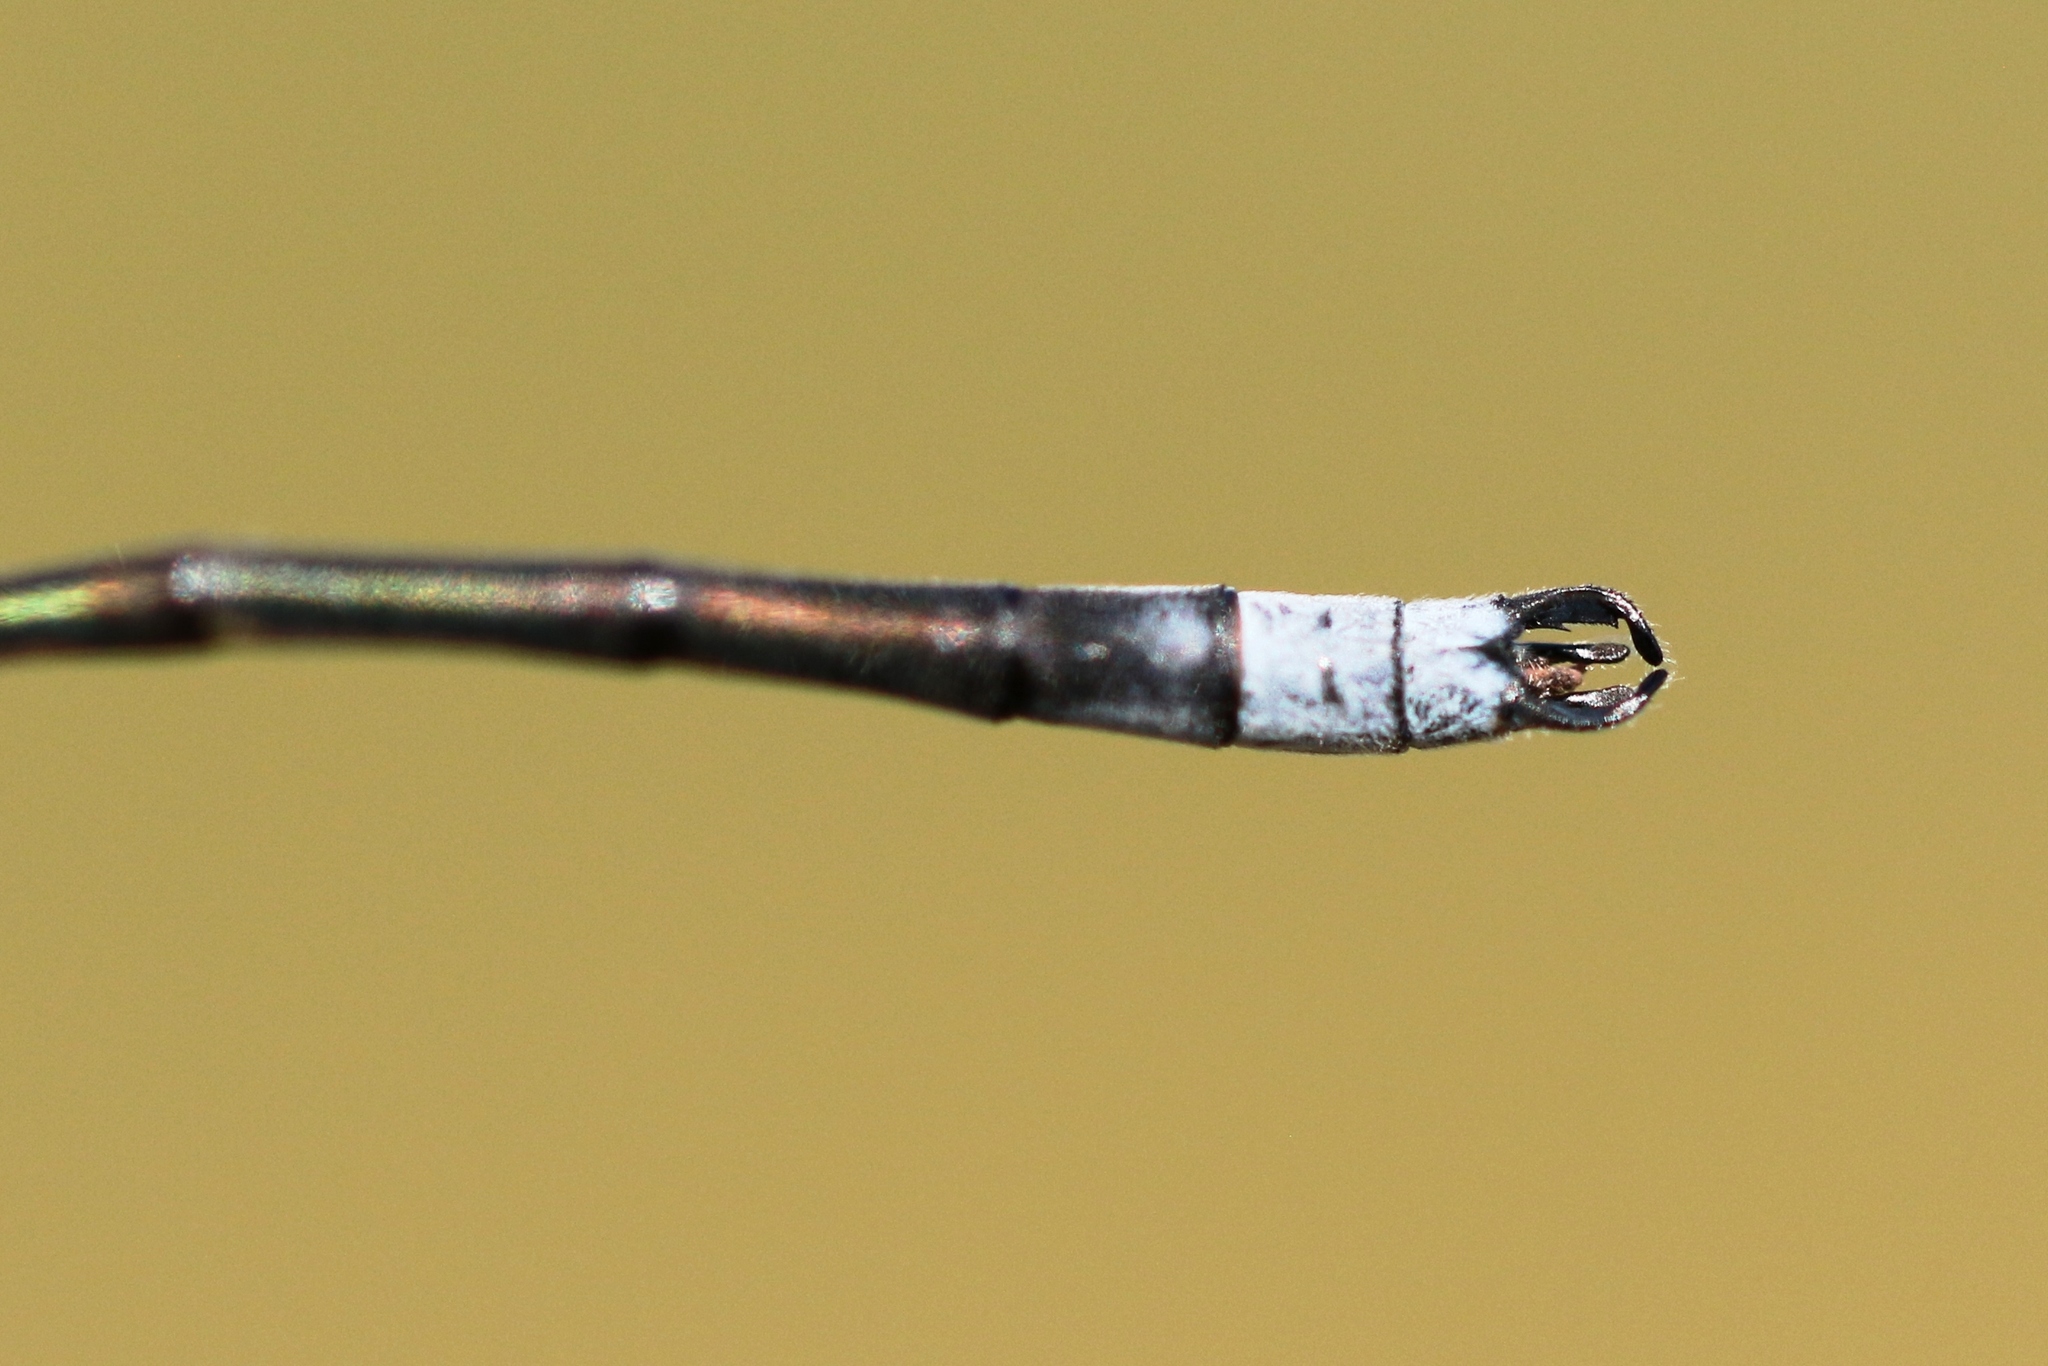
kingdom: Animalia
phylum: Arthropoda
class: Insecta
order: Odonata
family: Lestidae
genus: Lestes
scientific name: Lestes disjunctus
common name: Northern spreadwing
